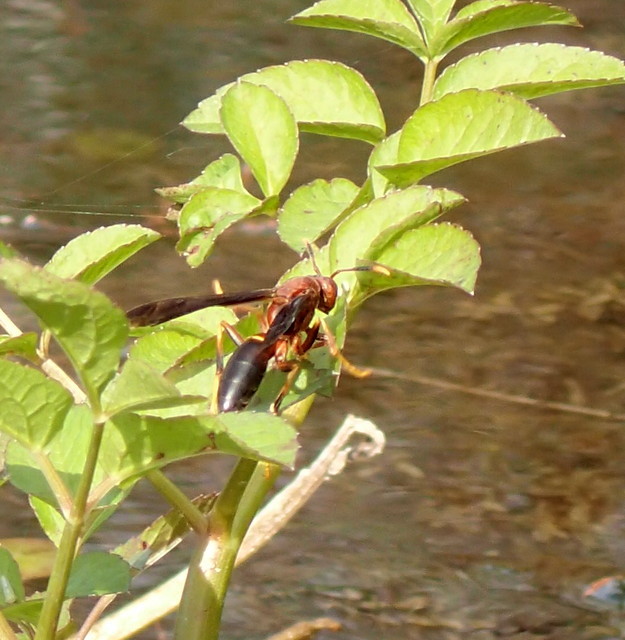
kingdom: Animalia
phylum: Arthropoda
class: Insecta
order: Hymenoptera
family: Eumenidae
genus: Polistes
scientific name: Polistes annularis
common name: Ringed paper wasp
